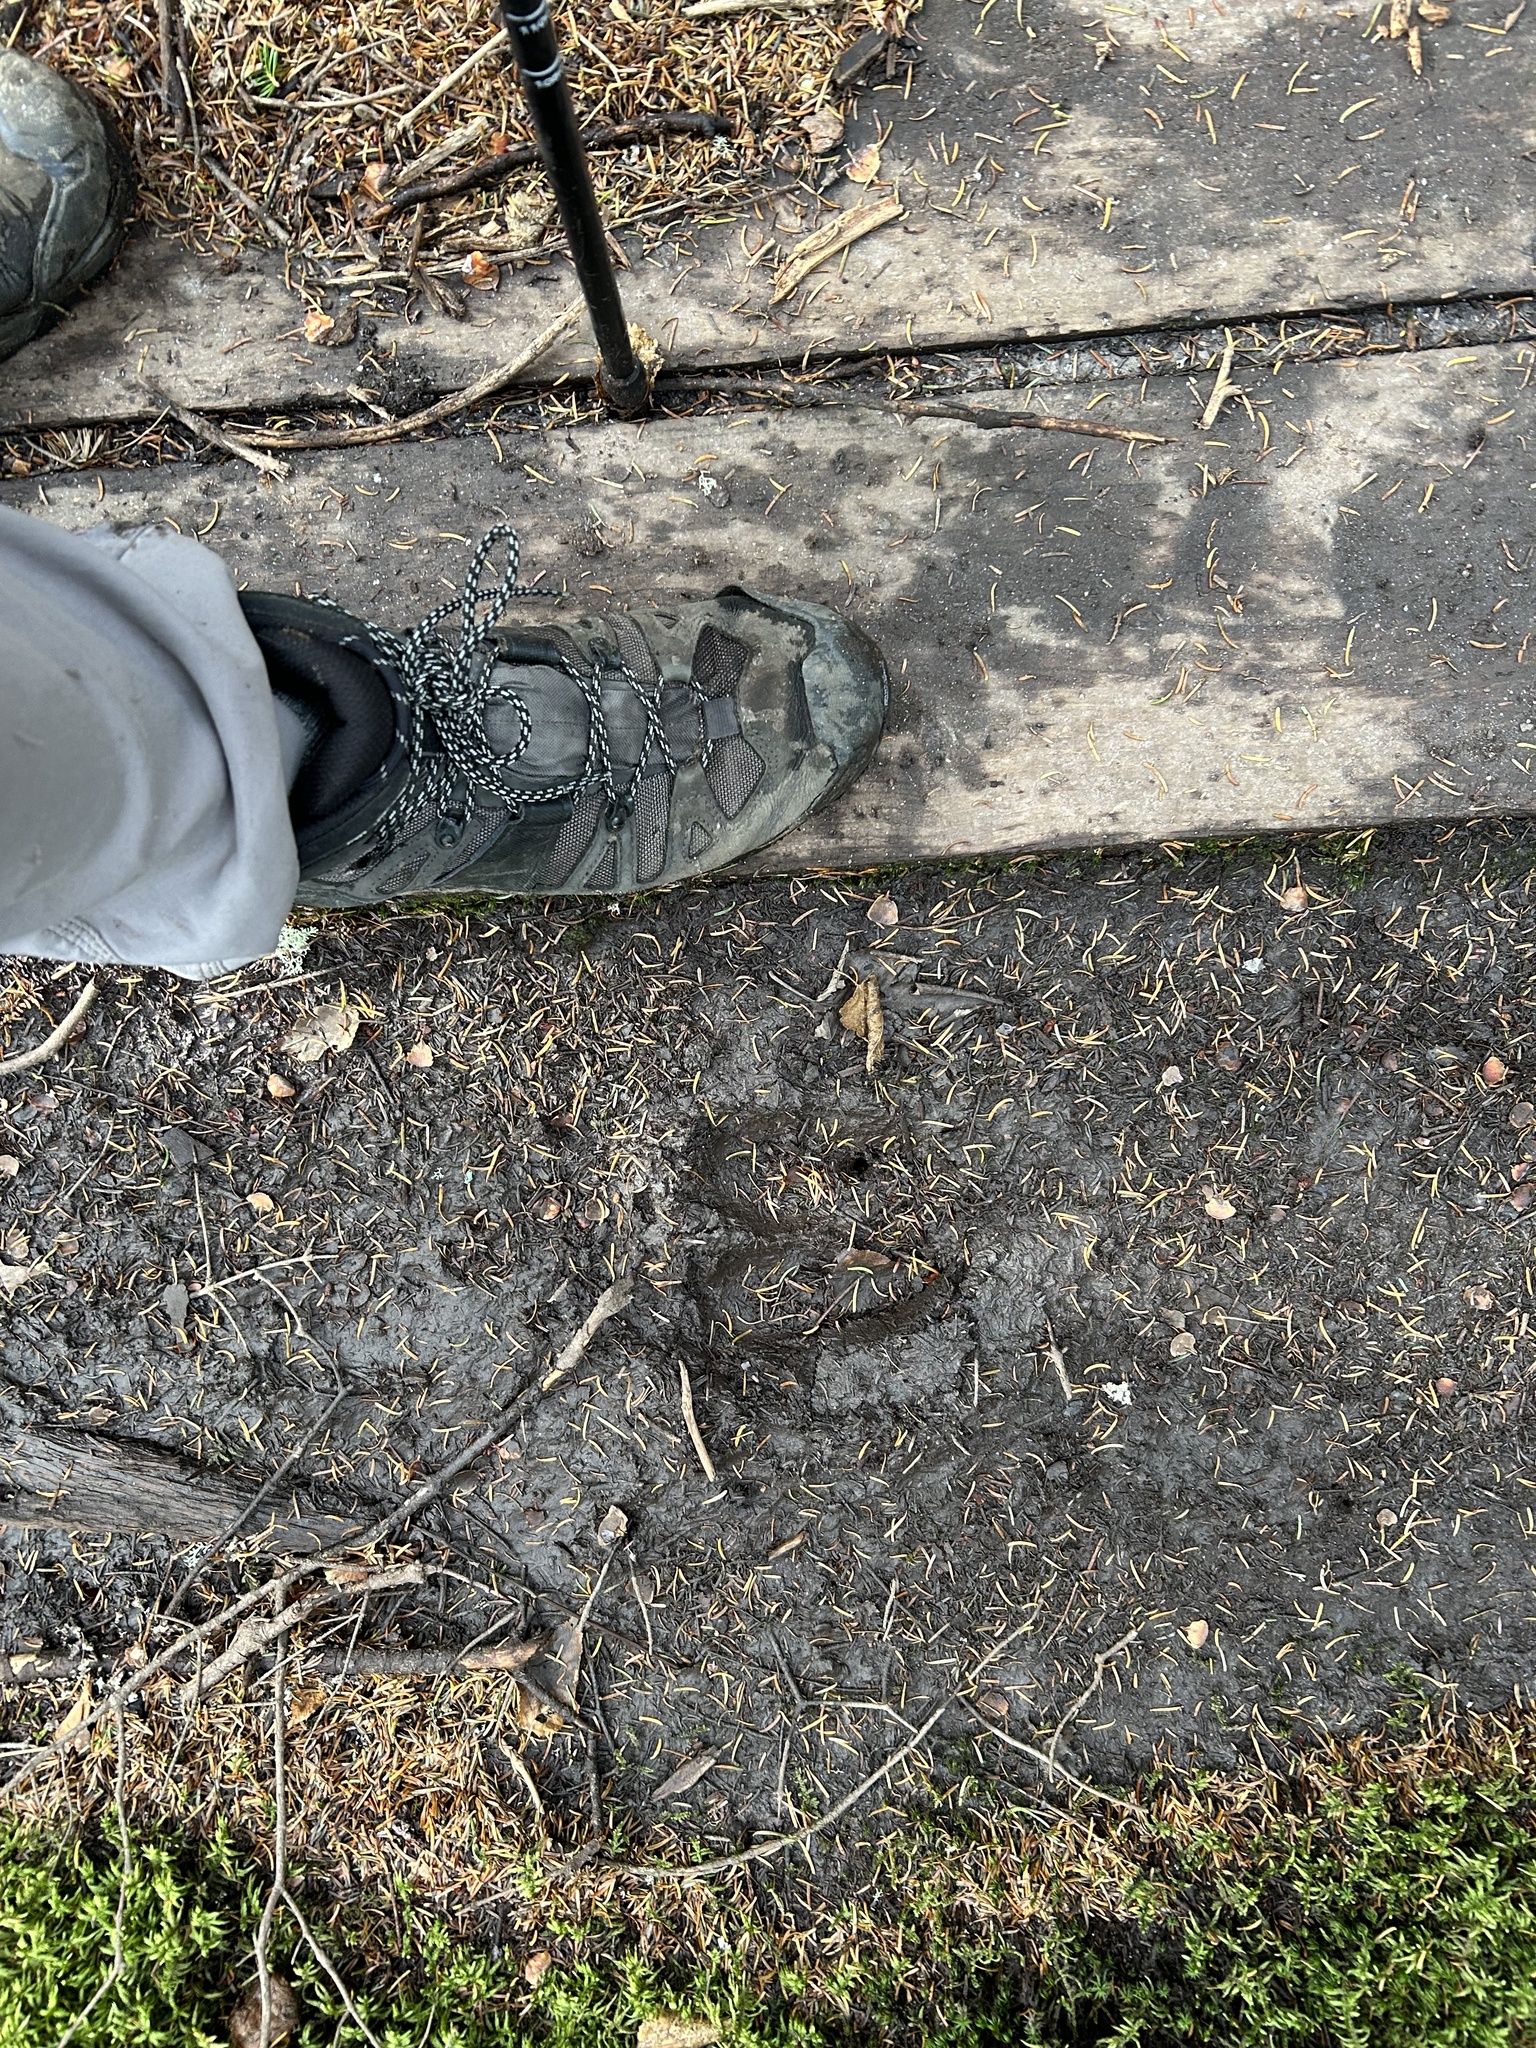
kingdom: Animalia
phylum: Chordata
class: Mammalia
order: Artiodactyla
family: Cervidae
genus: Alces
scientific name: Alces alces
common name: Moose
